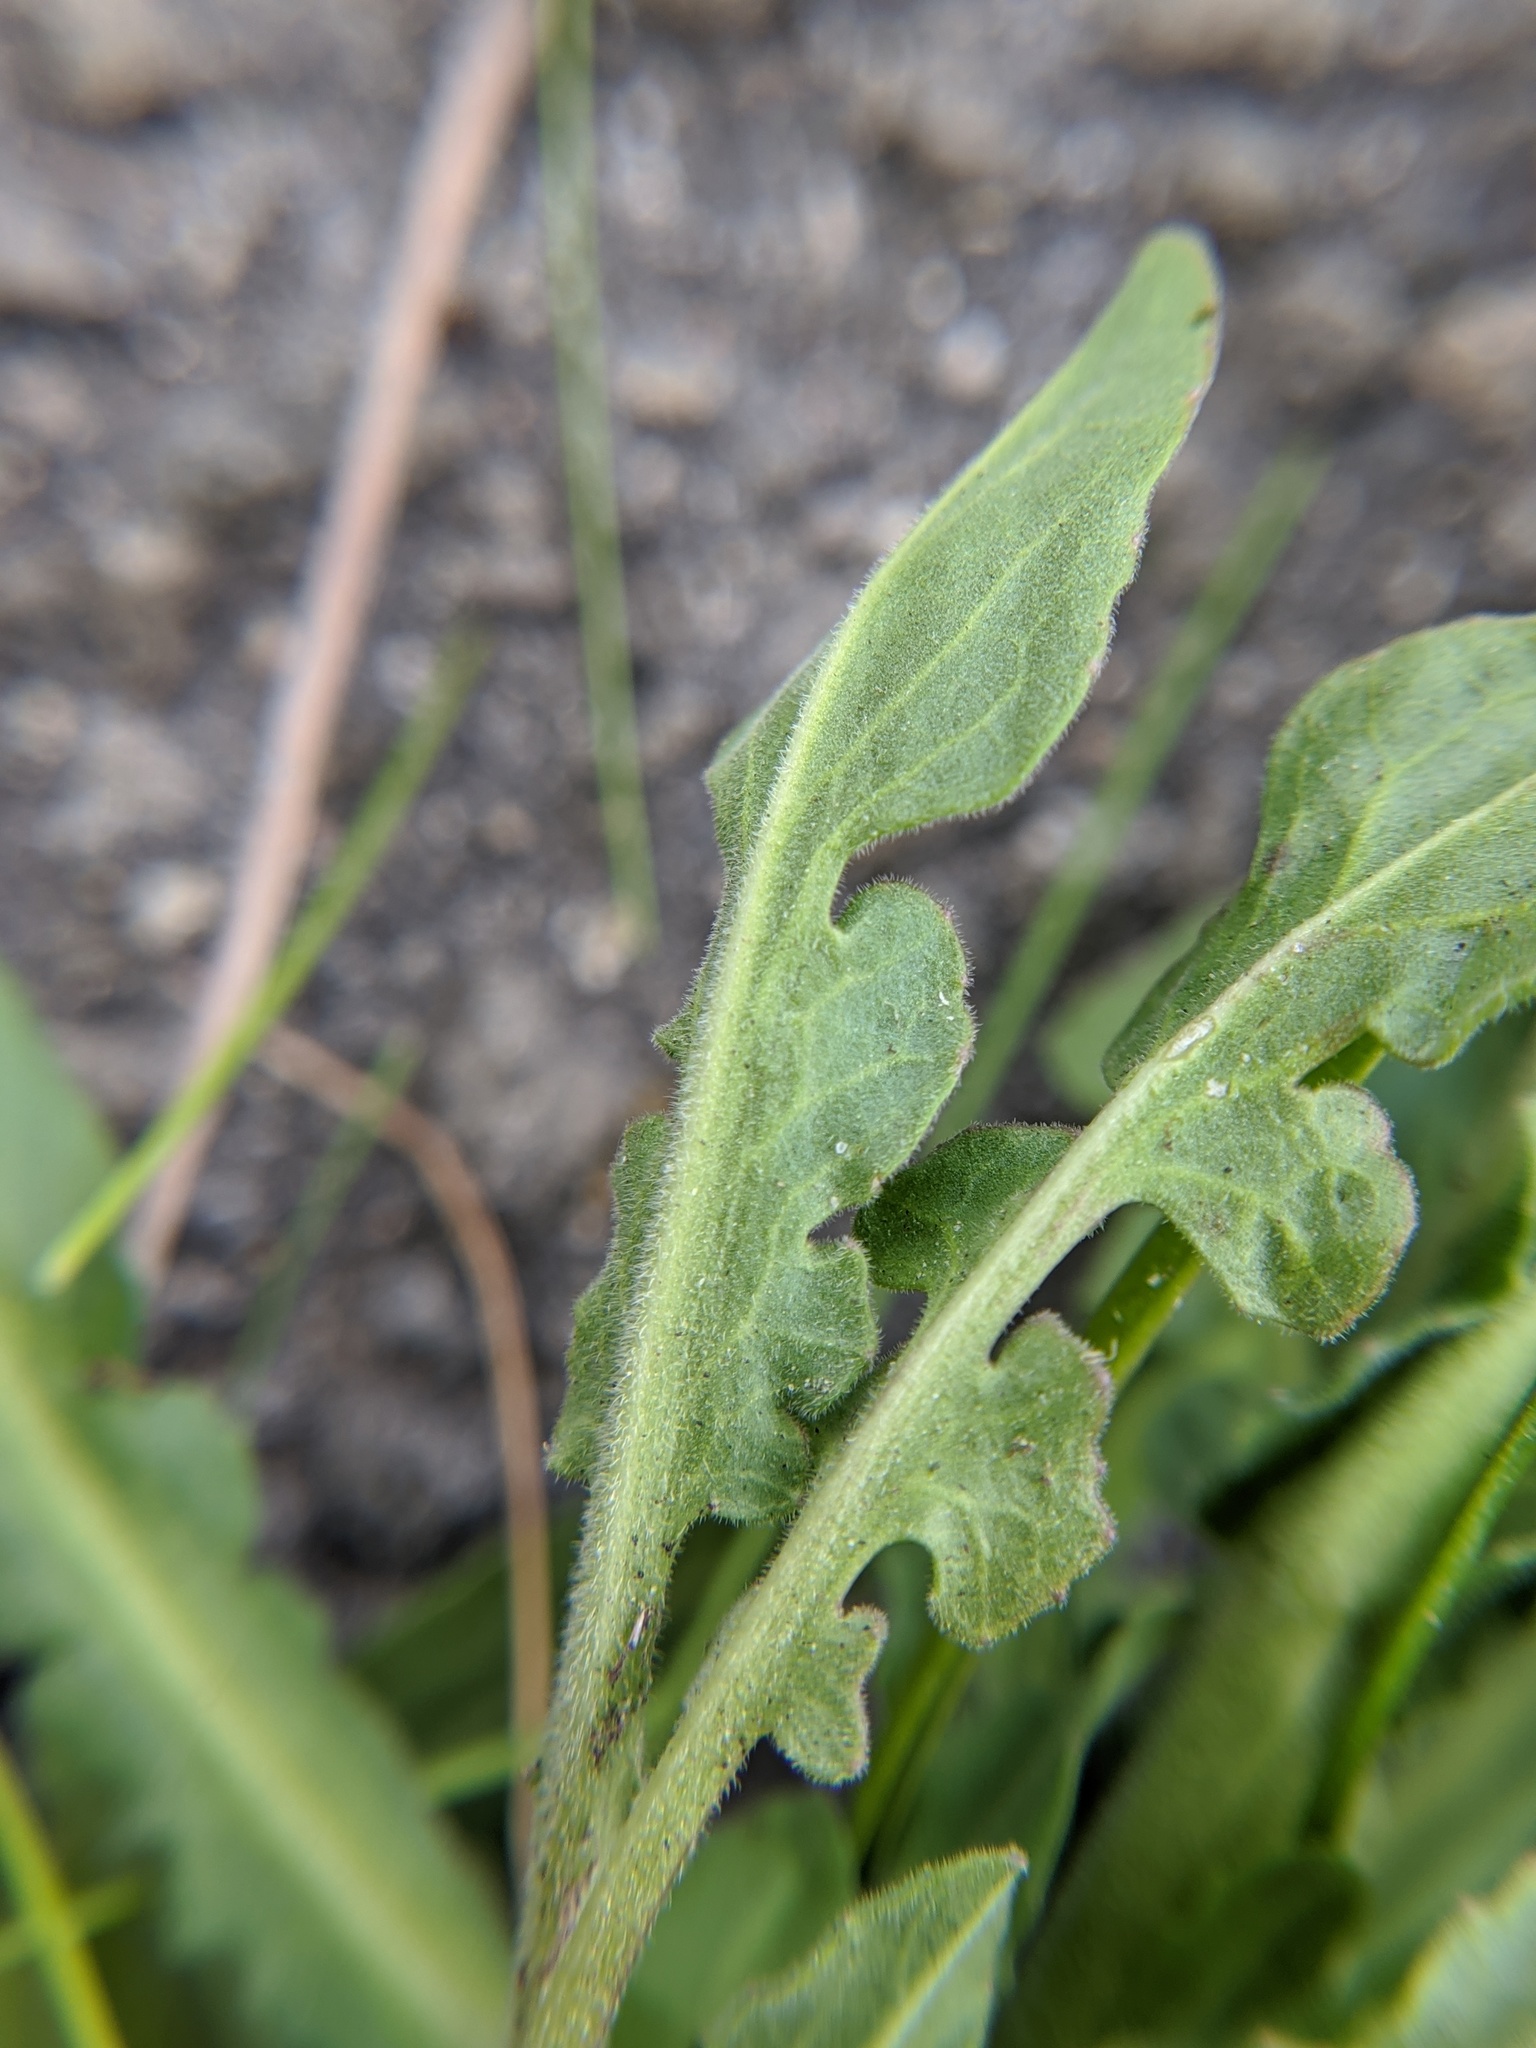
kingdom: Plantae
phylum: Tracheophyta
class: Magnoliopsida
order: Brassicales
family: Brassicaceae
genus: Lepidium
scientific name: Lepidium campestre
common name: Field pepperwort
